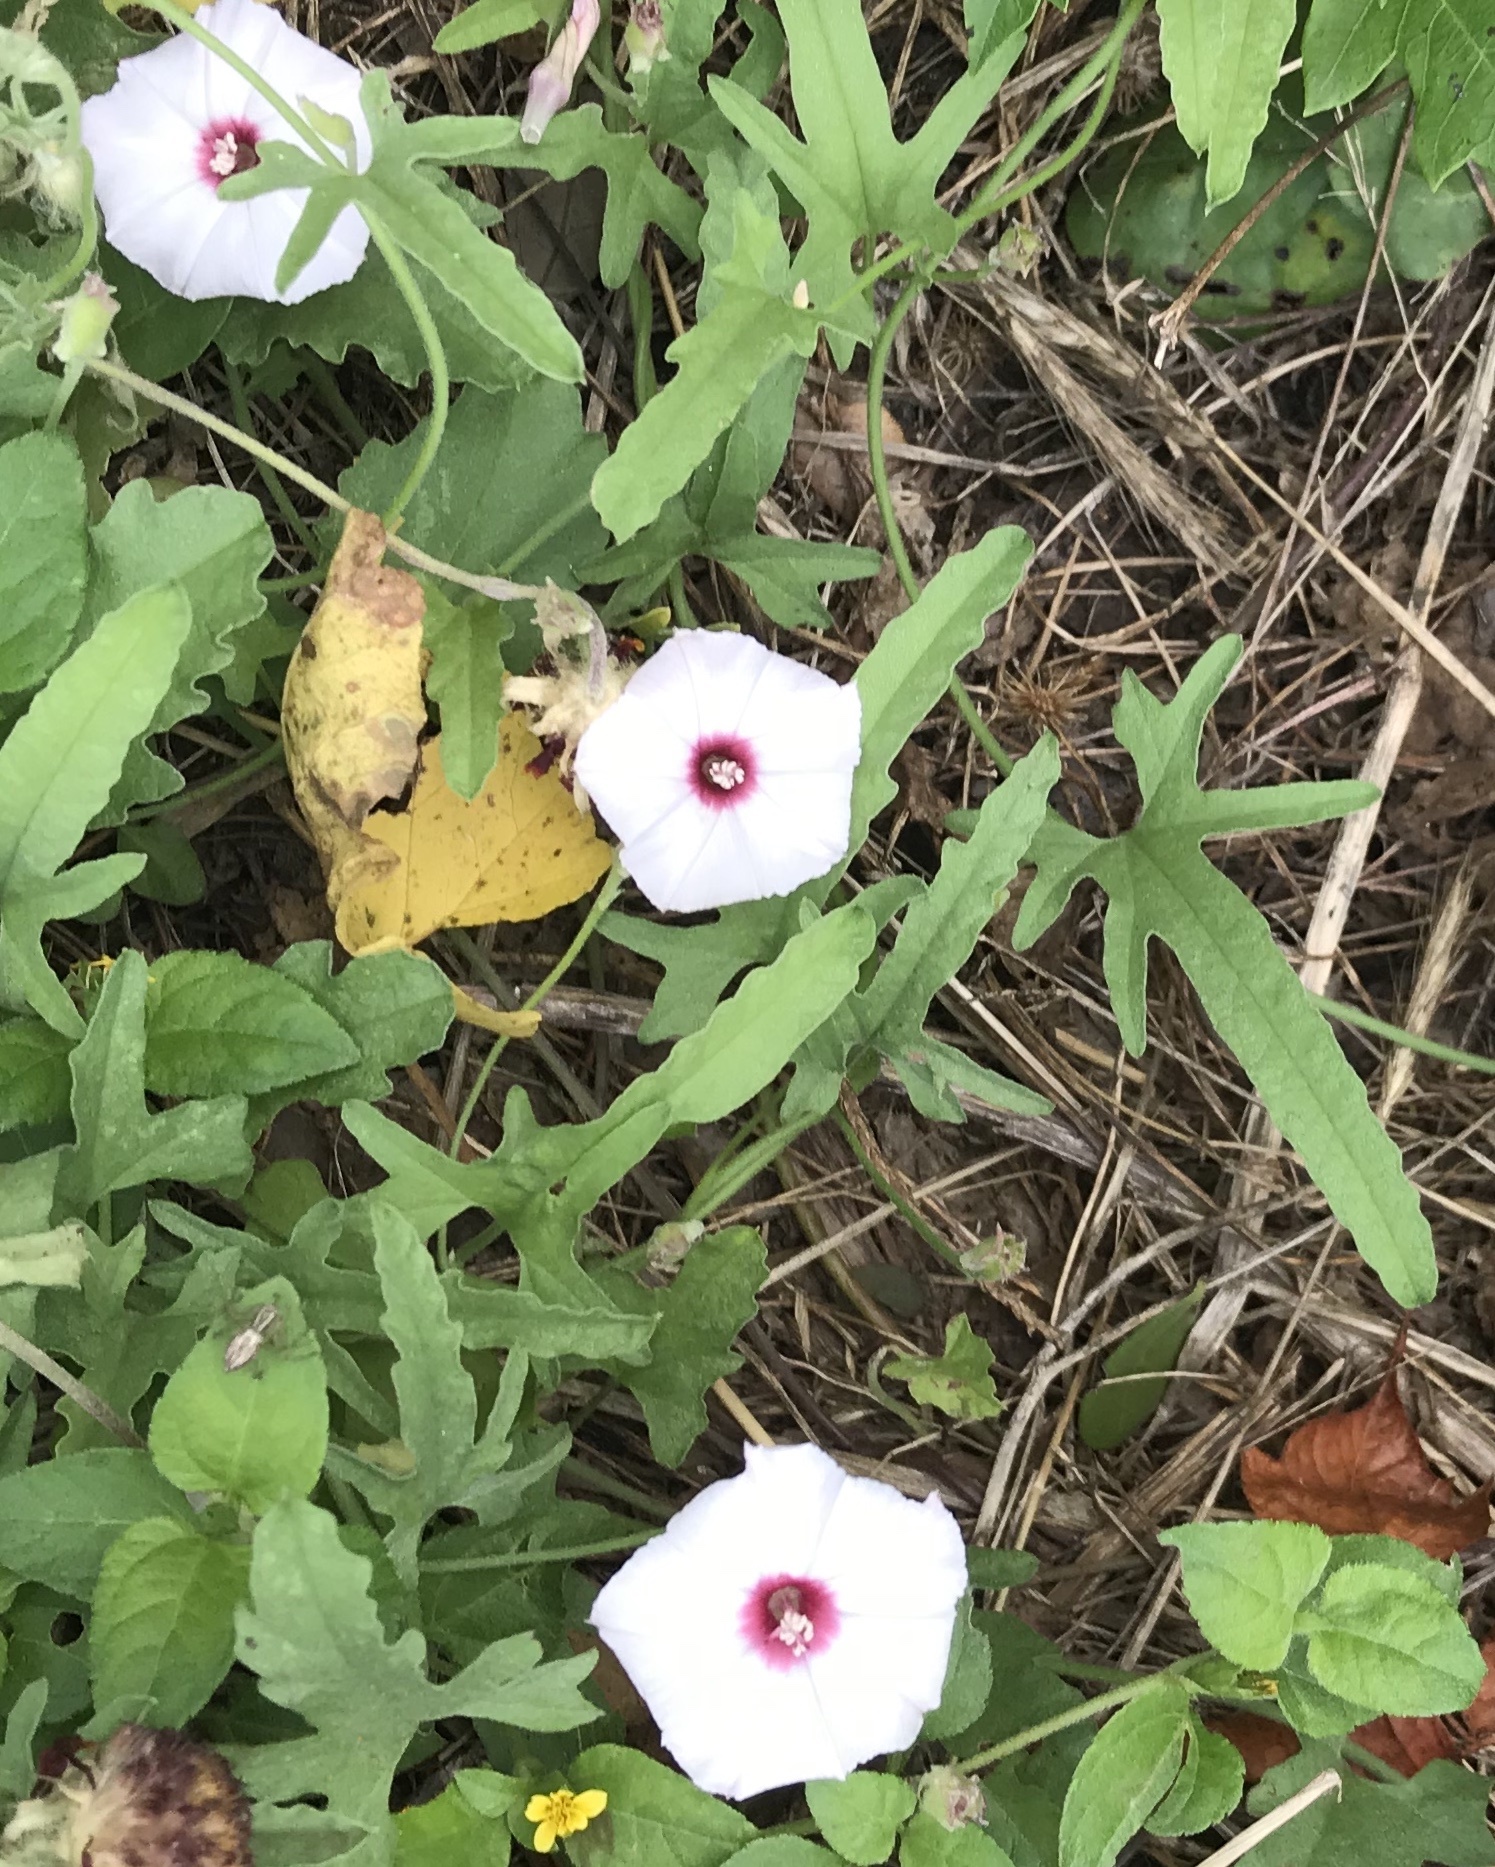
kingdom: Plantae
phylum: Tracheophyta
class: Magnoliopsida
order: Solanales
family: Convolvulaceae
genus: Convolvulus
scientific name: Convolvulus equitans
